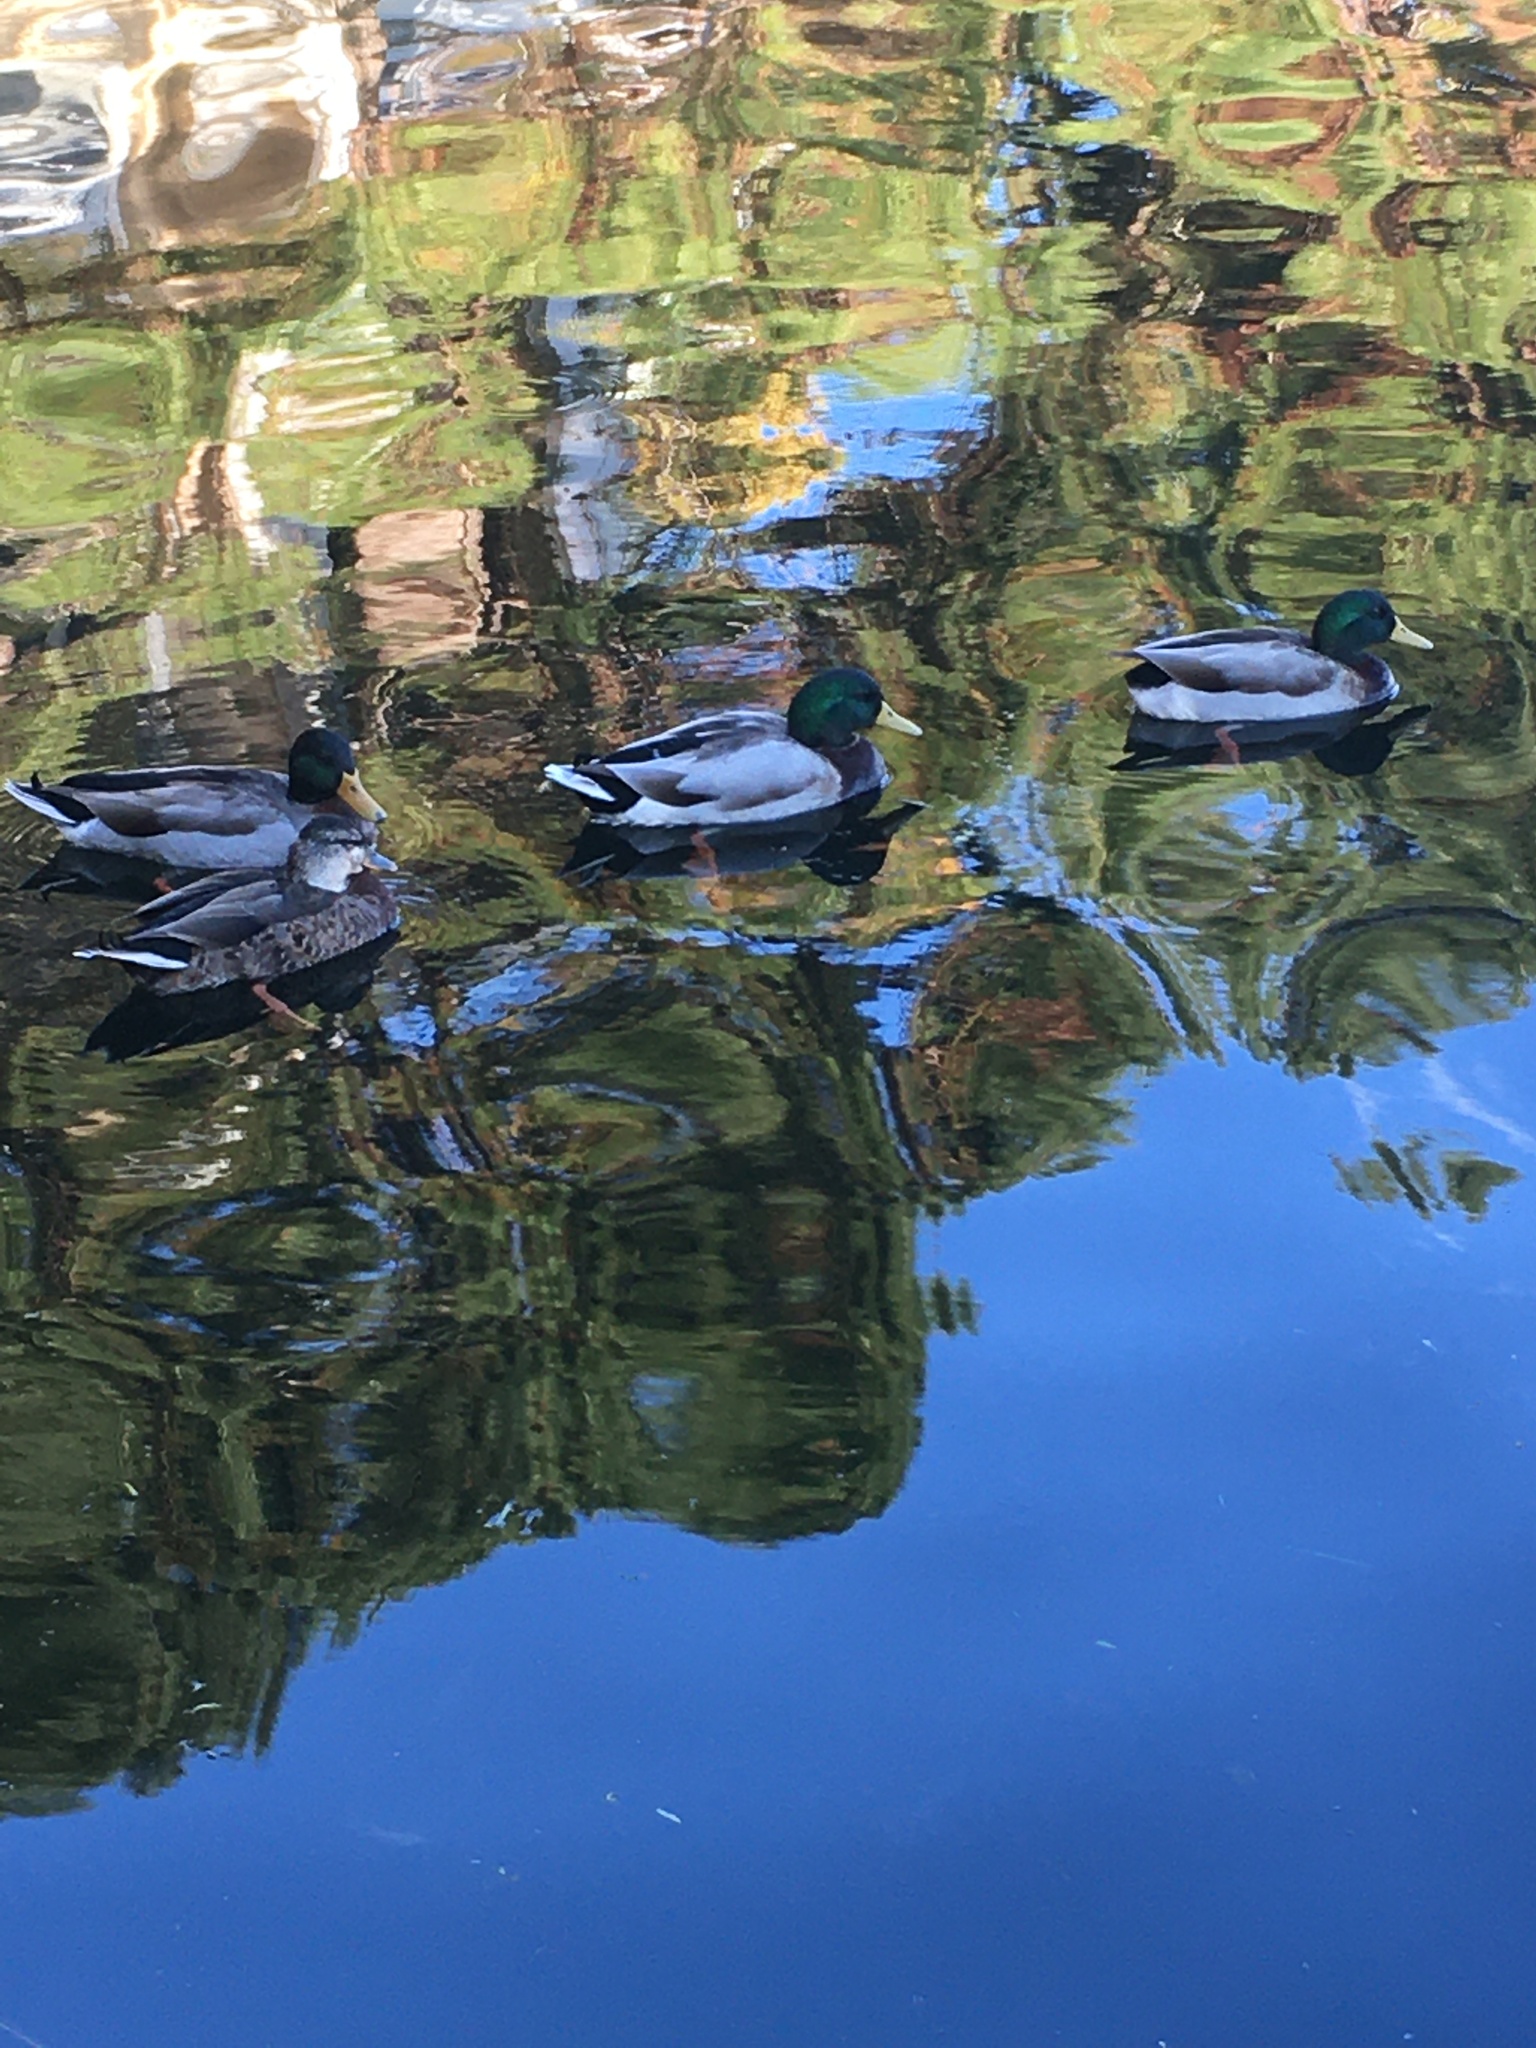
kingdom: Animalia
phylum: Chordata
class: Aves
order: Anseriformes
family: Anatidae
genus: Anas
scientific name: Anas platyrhynchos
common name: Mallard
